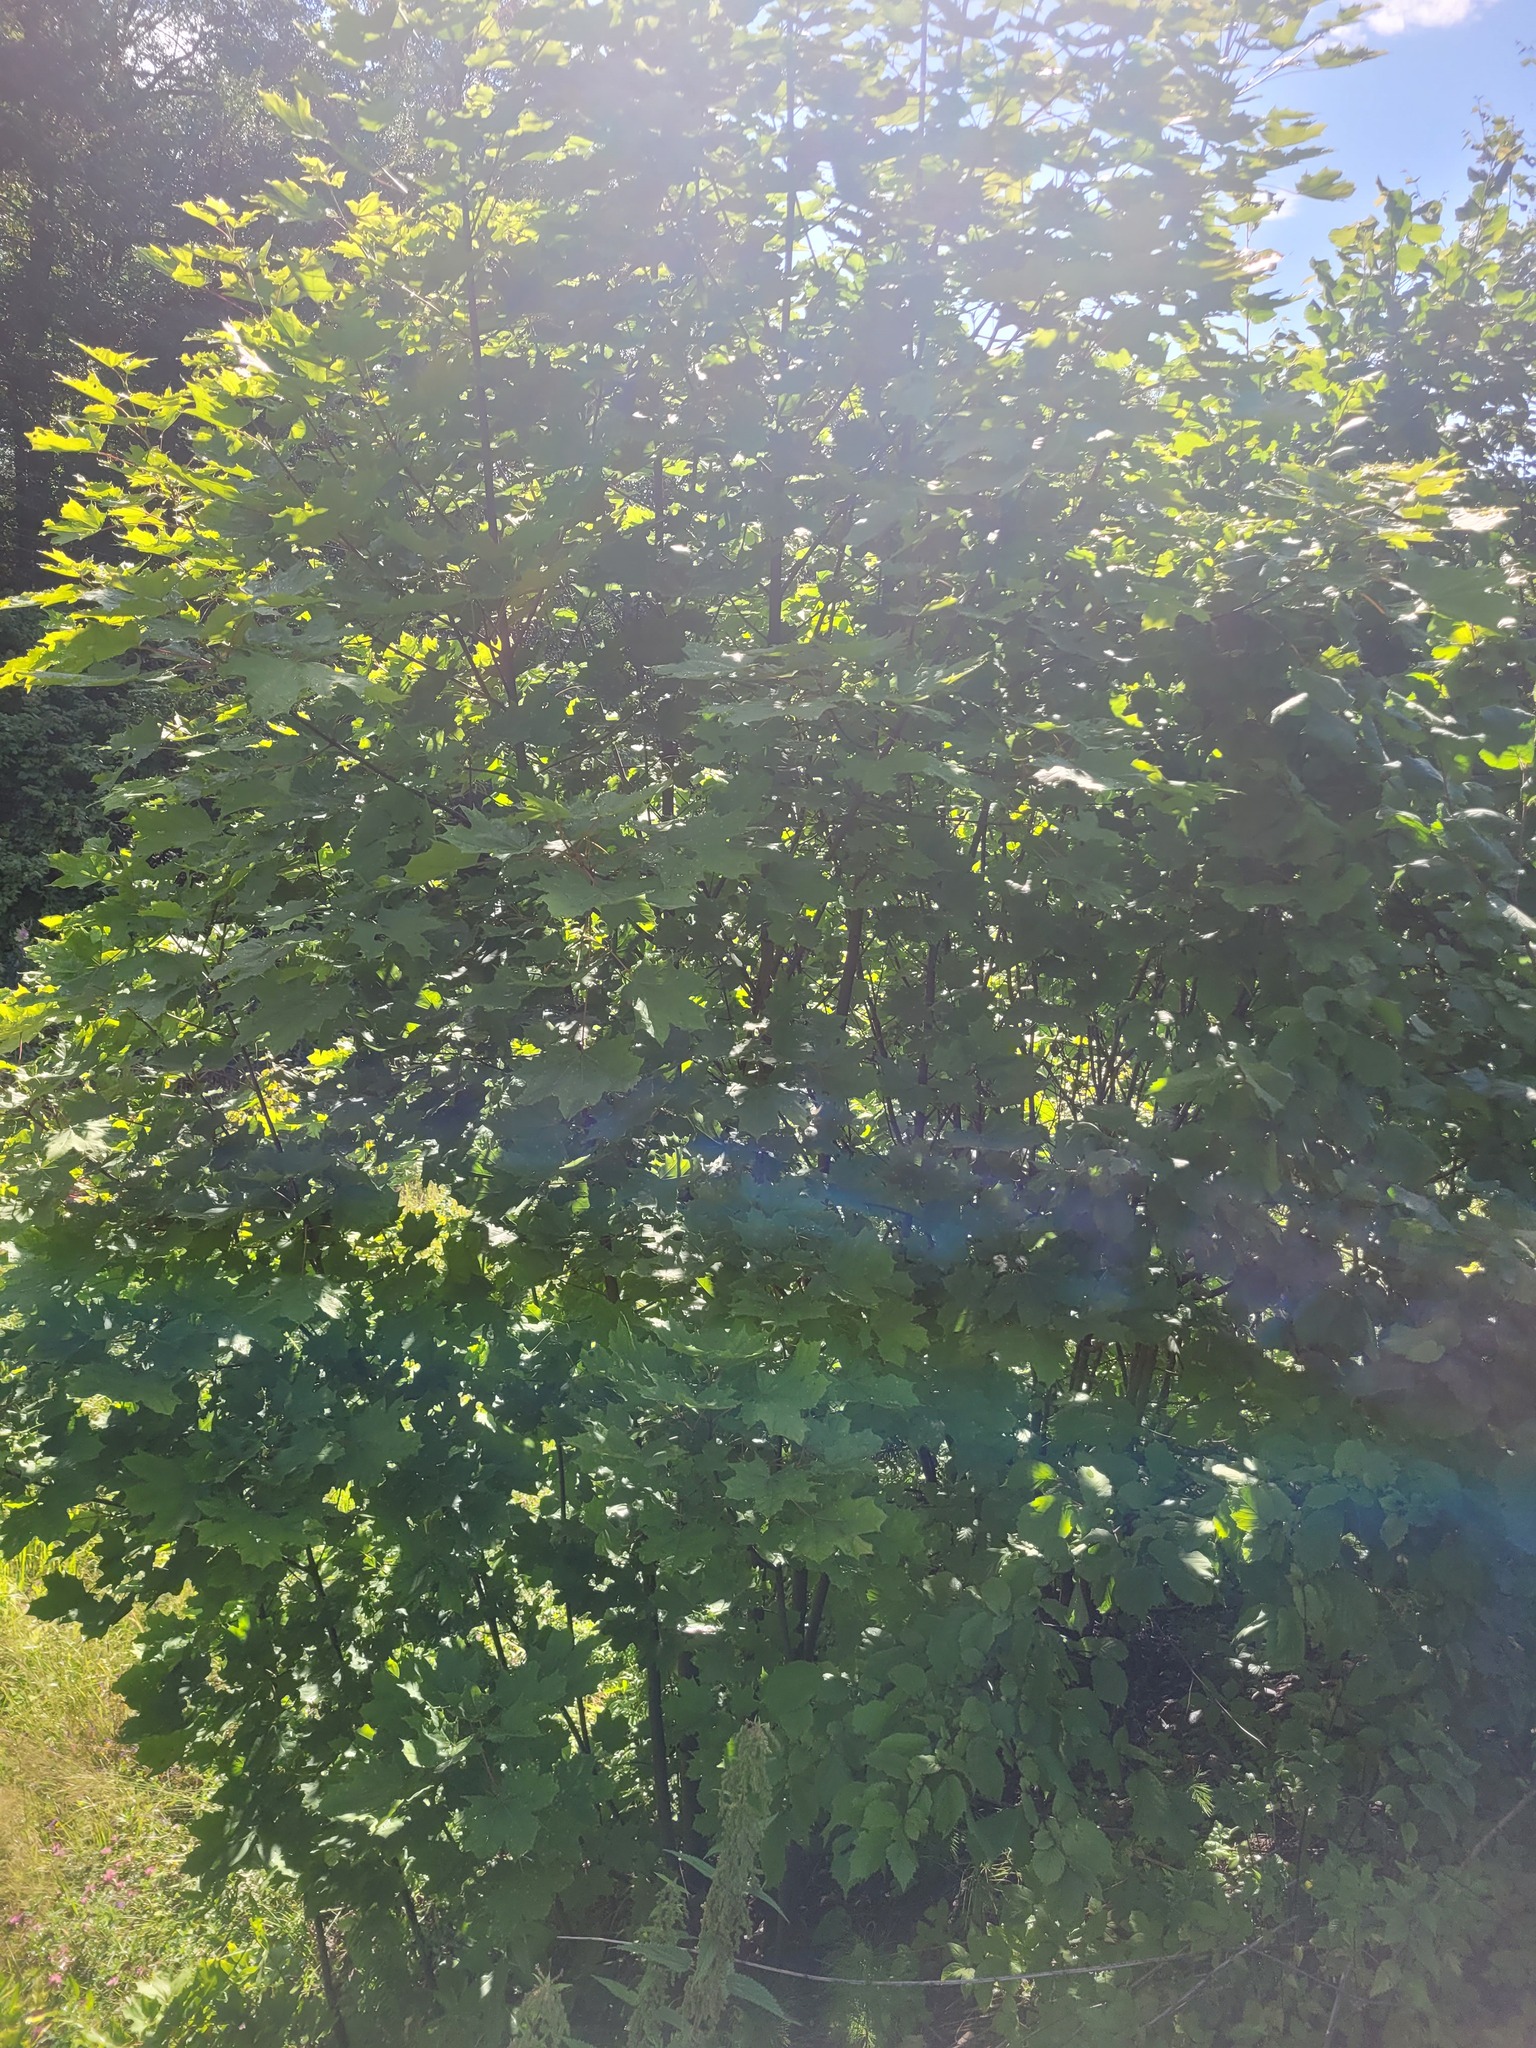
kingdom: Plantae
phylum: Tracheophyta
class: Magnoliopsida
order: Sapindales
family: Sapindaceae
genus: Acer
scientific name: Acer platanoides
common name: Norway maple
